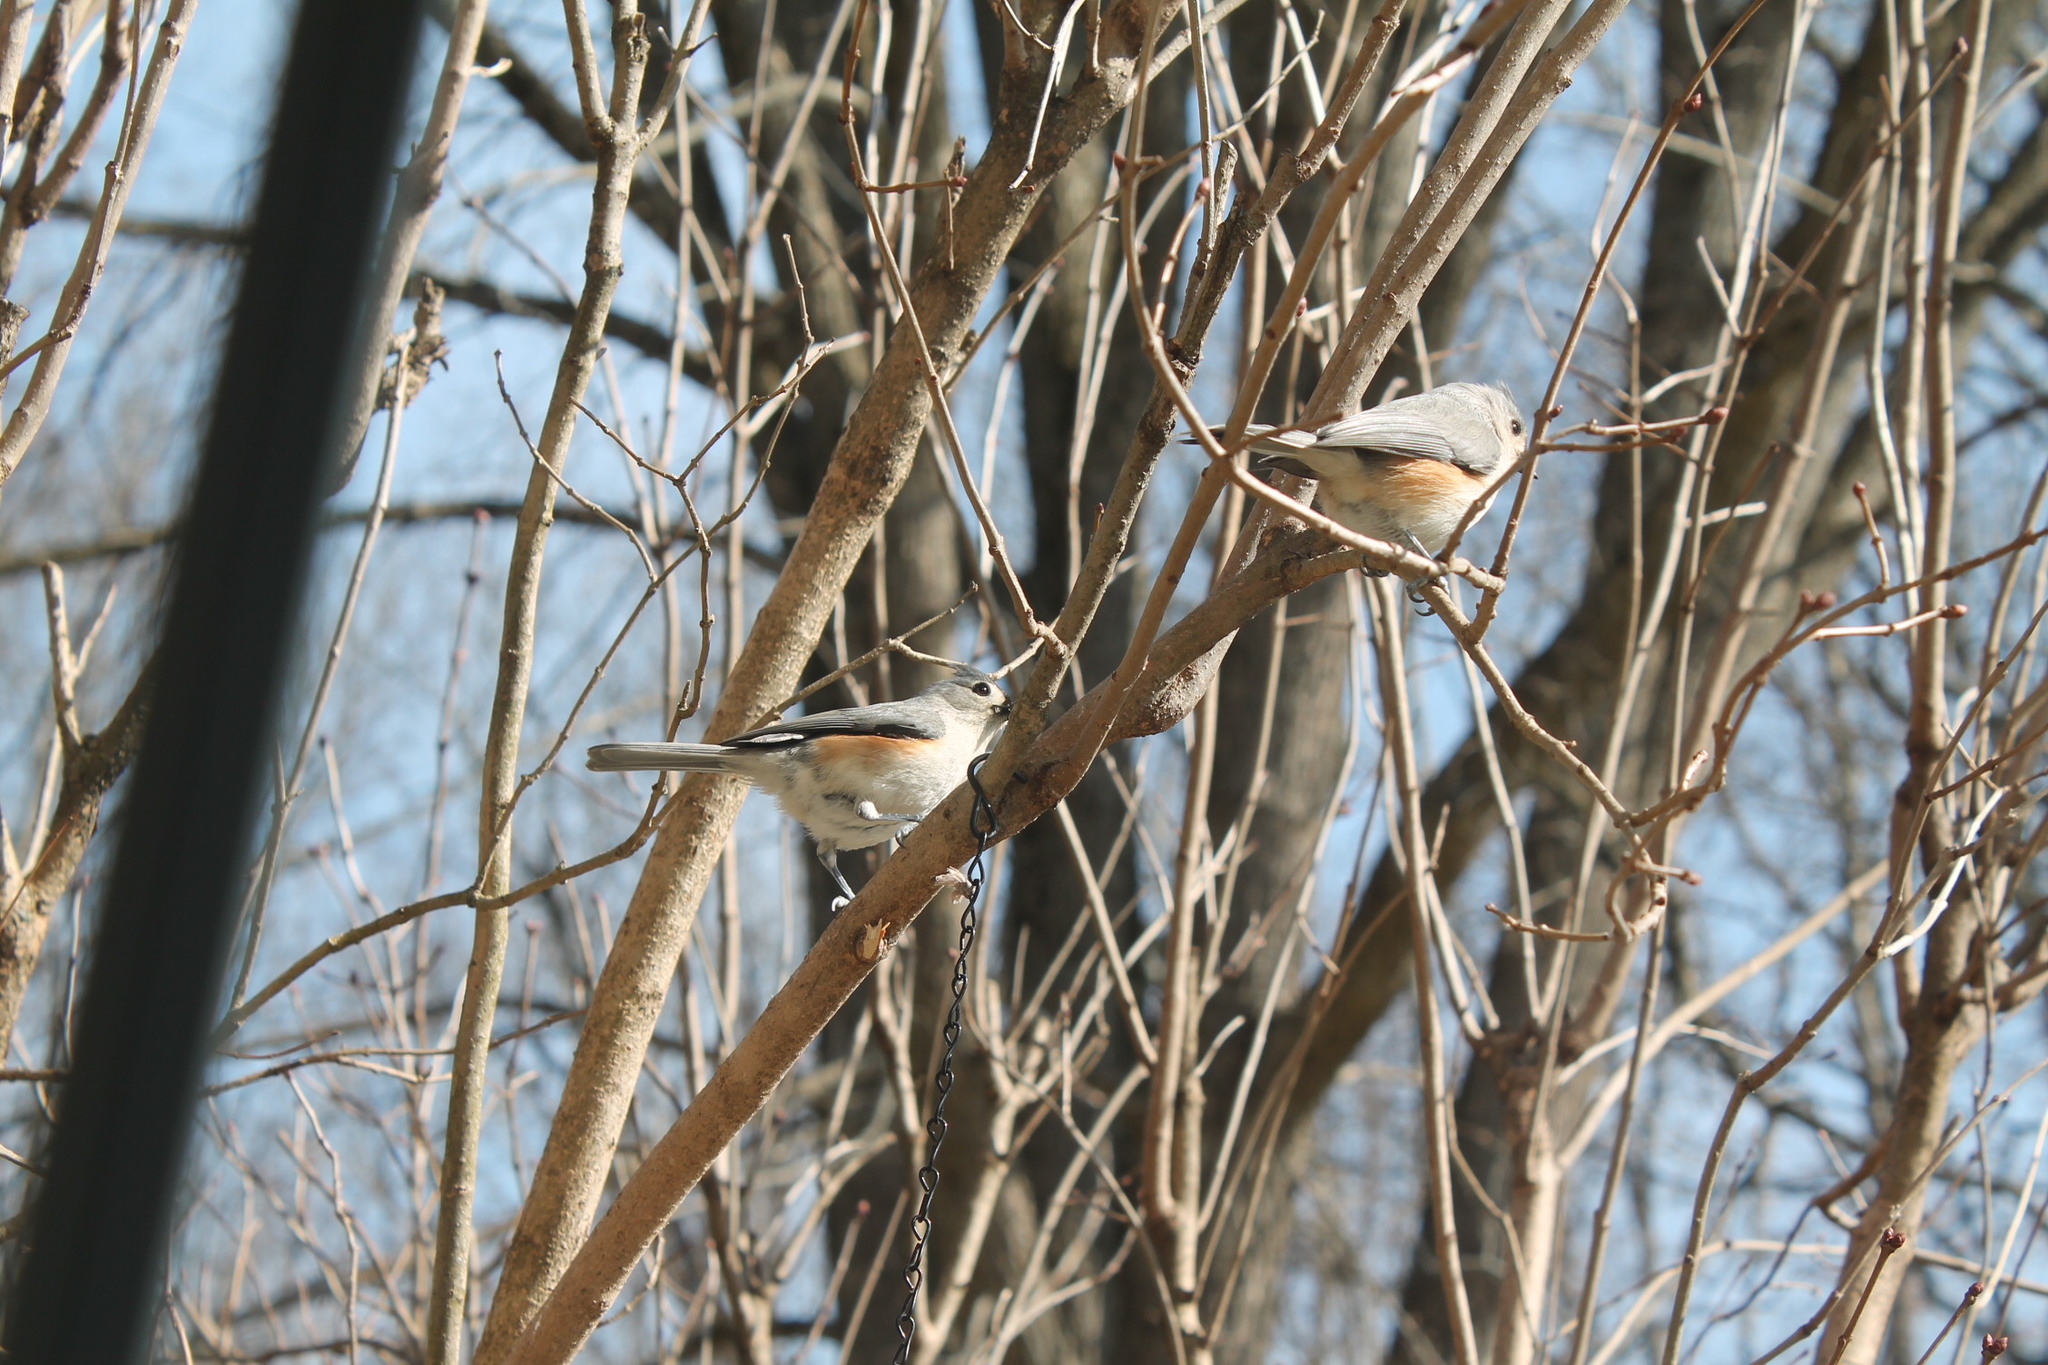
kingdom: Animalia
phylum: Chordata
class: Aves
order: Passeriformes
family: Paridae
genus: Baeolophus
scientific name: Baeolophus bicolor
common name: Tufted titmouse
